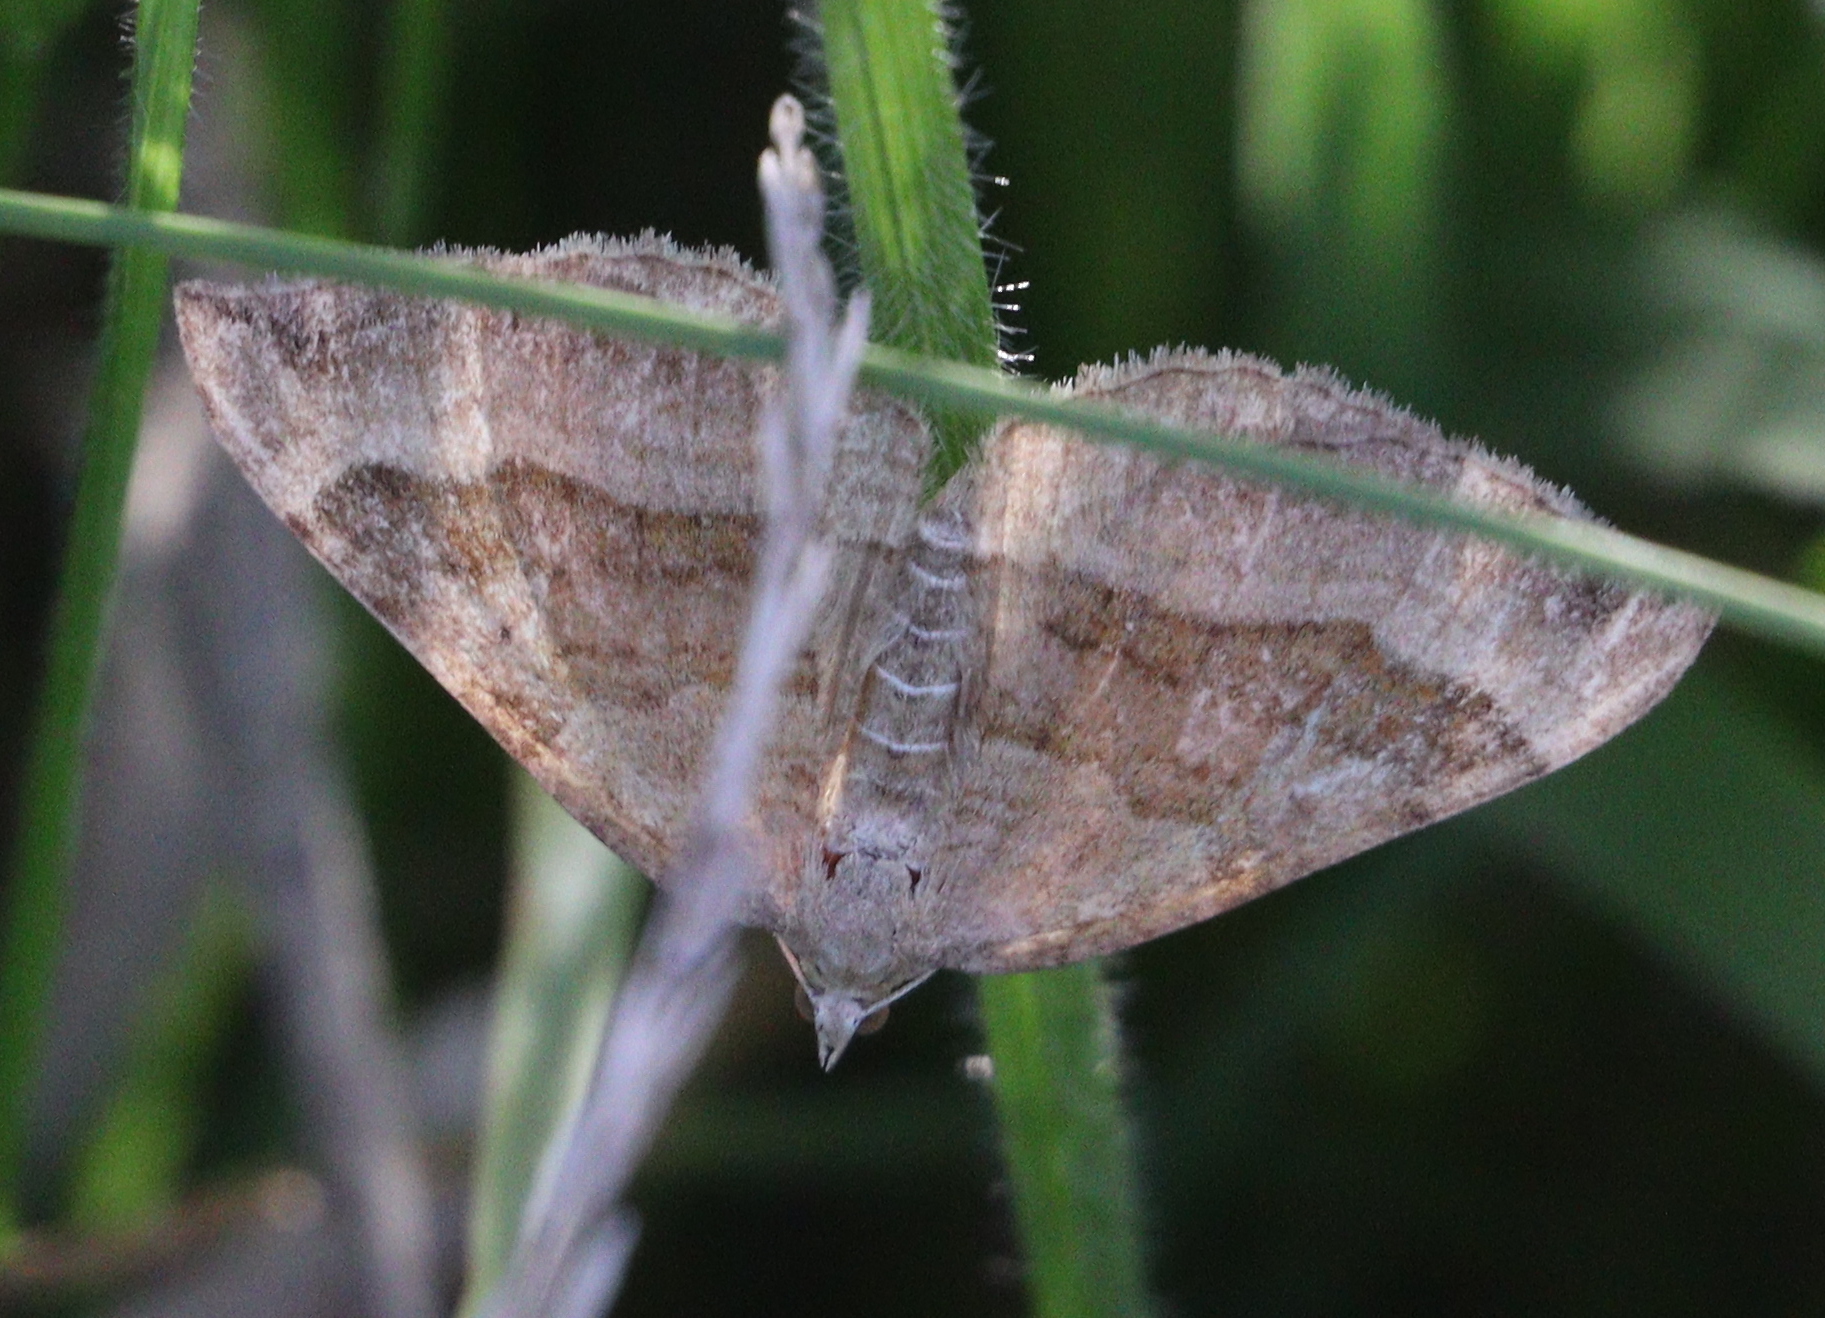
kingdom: Animalia
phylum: Arthropoda
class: Insecta
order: Lepidoptera
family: Geometridae
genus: Scotopteryx
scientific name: Scotopteryx chenopodiata
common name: Shaded broad-bar
